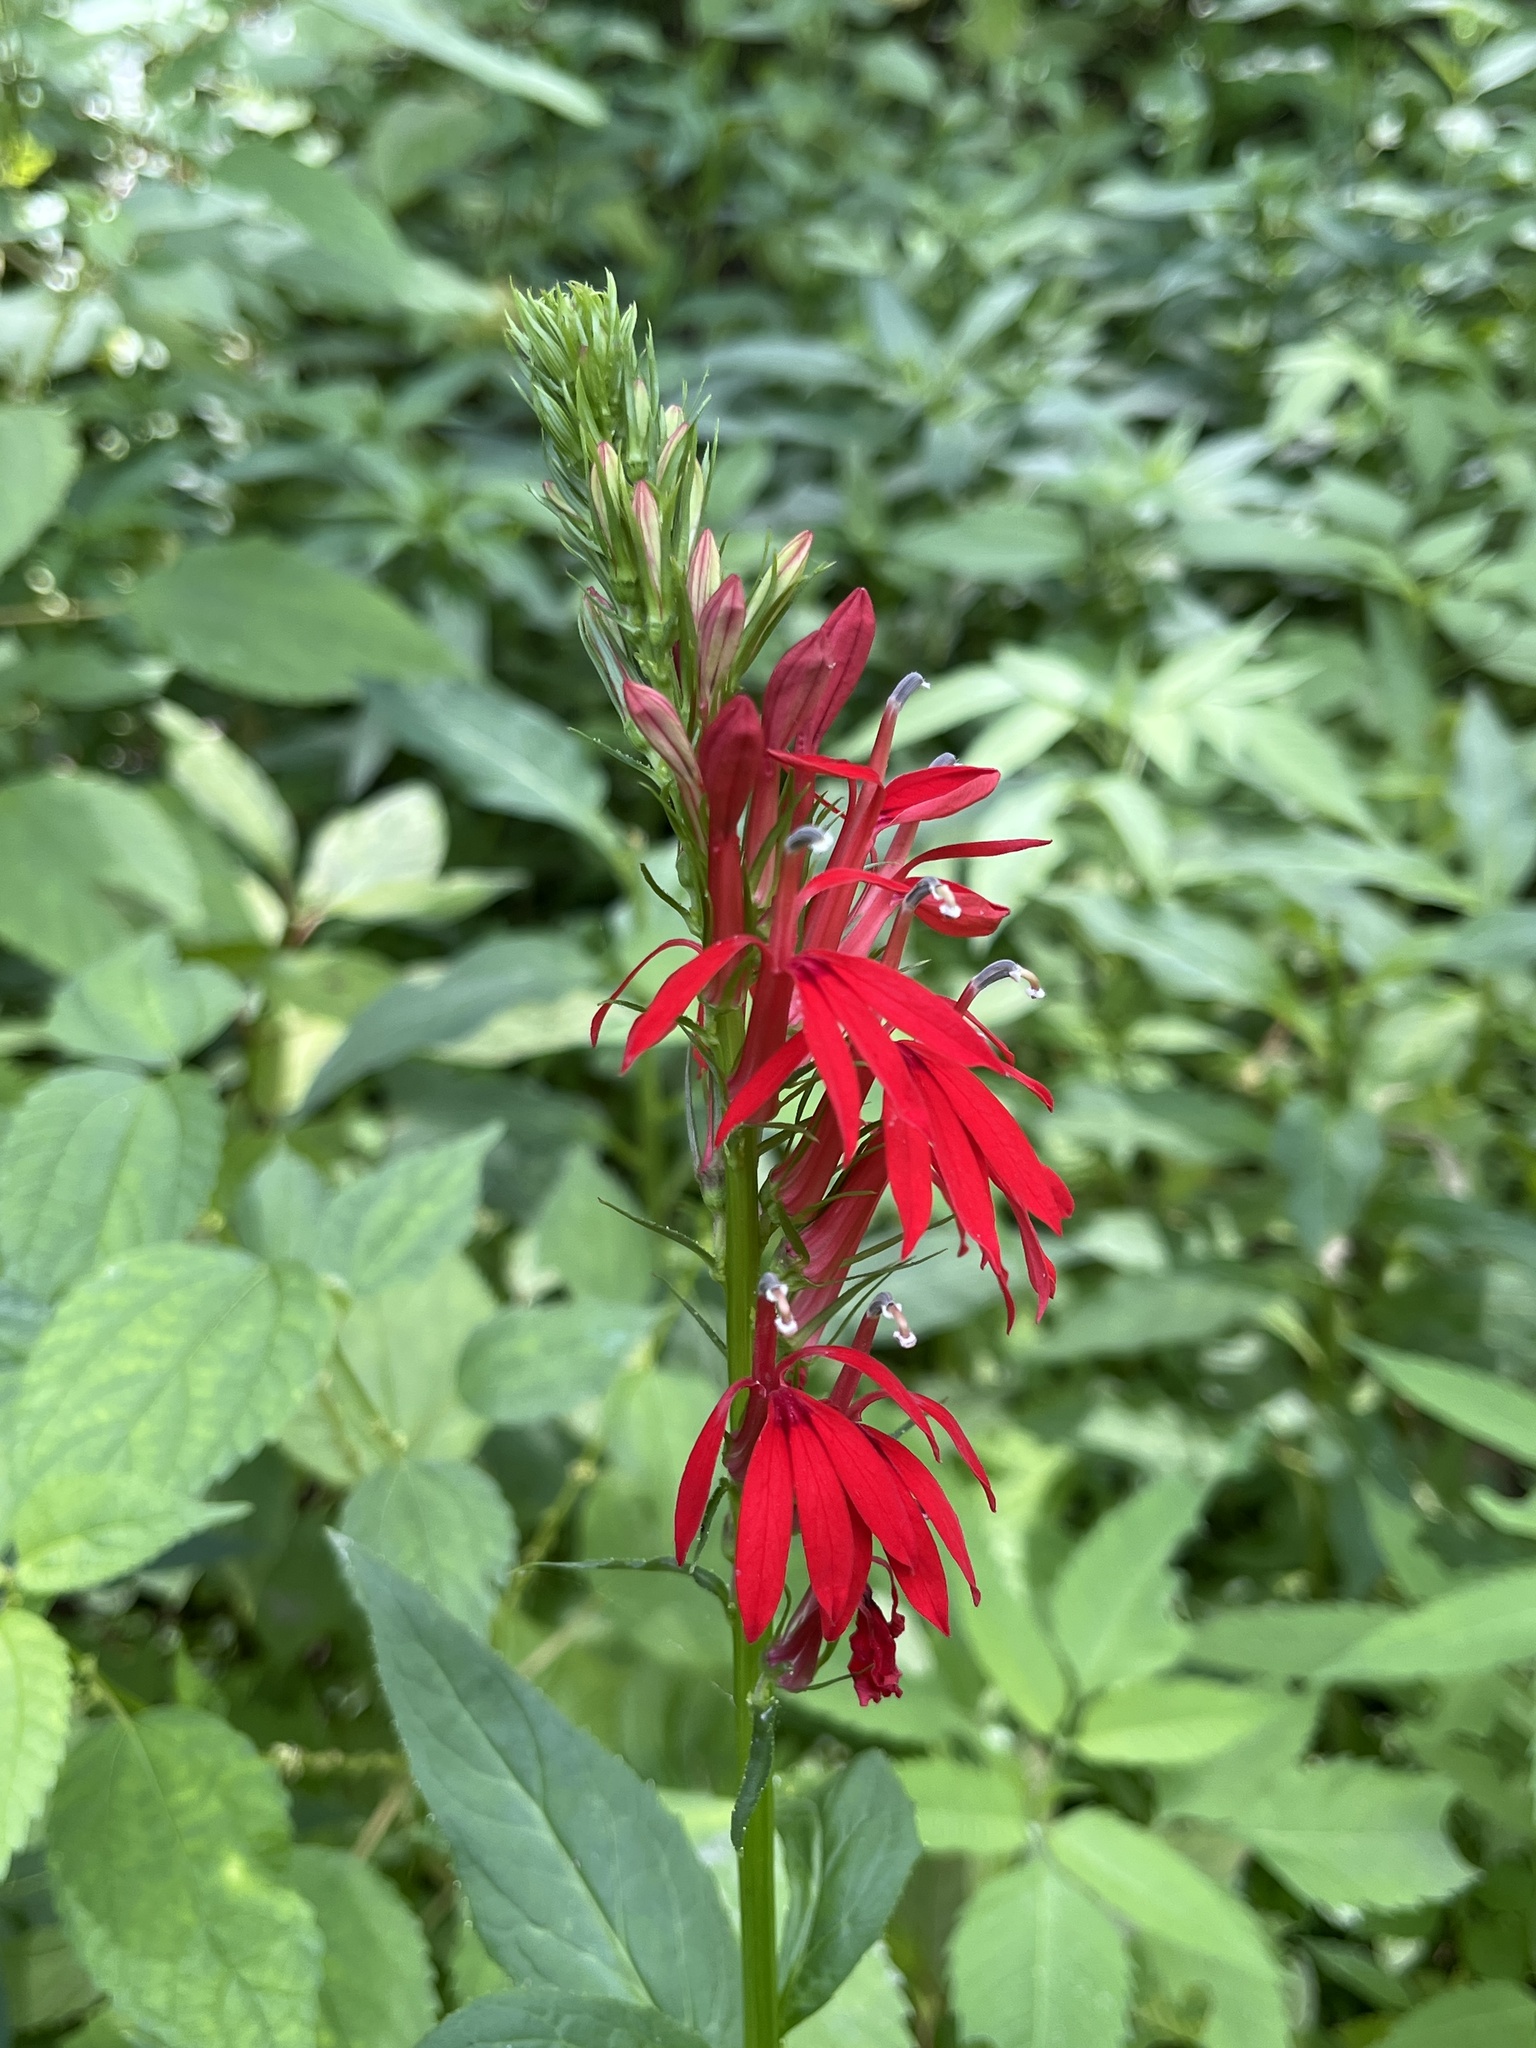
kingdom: Plantae
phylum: Tracheophyta
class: Magnoliopsida
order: Asterales
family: Campanulaceae
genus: Lobelia
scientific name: Lobelia cardinalis
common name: Cardinal flower
